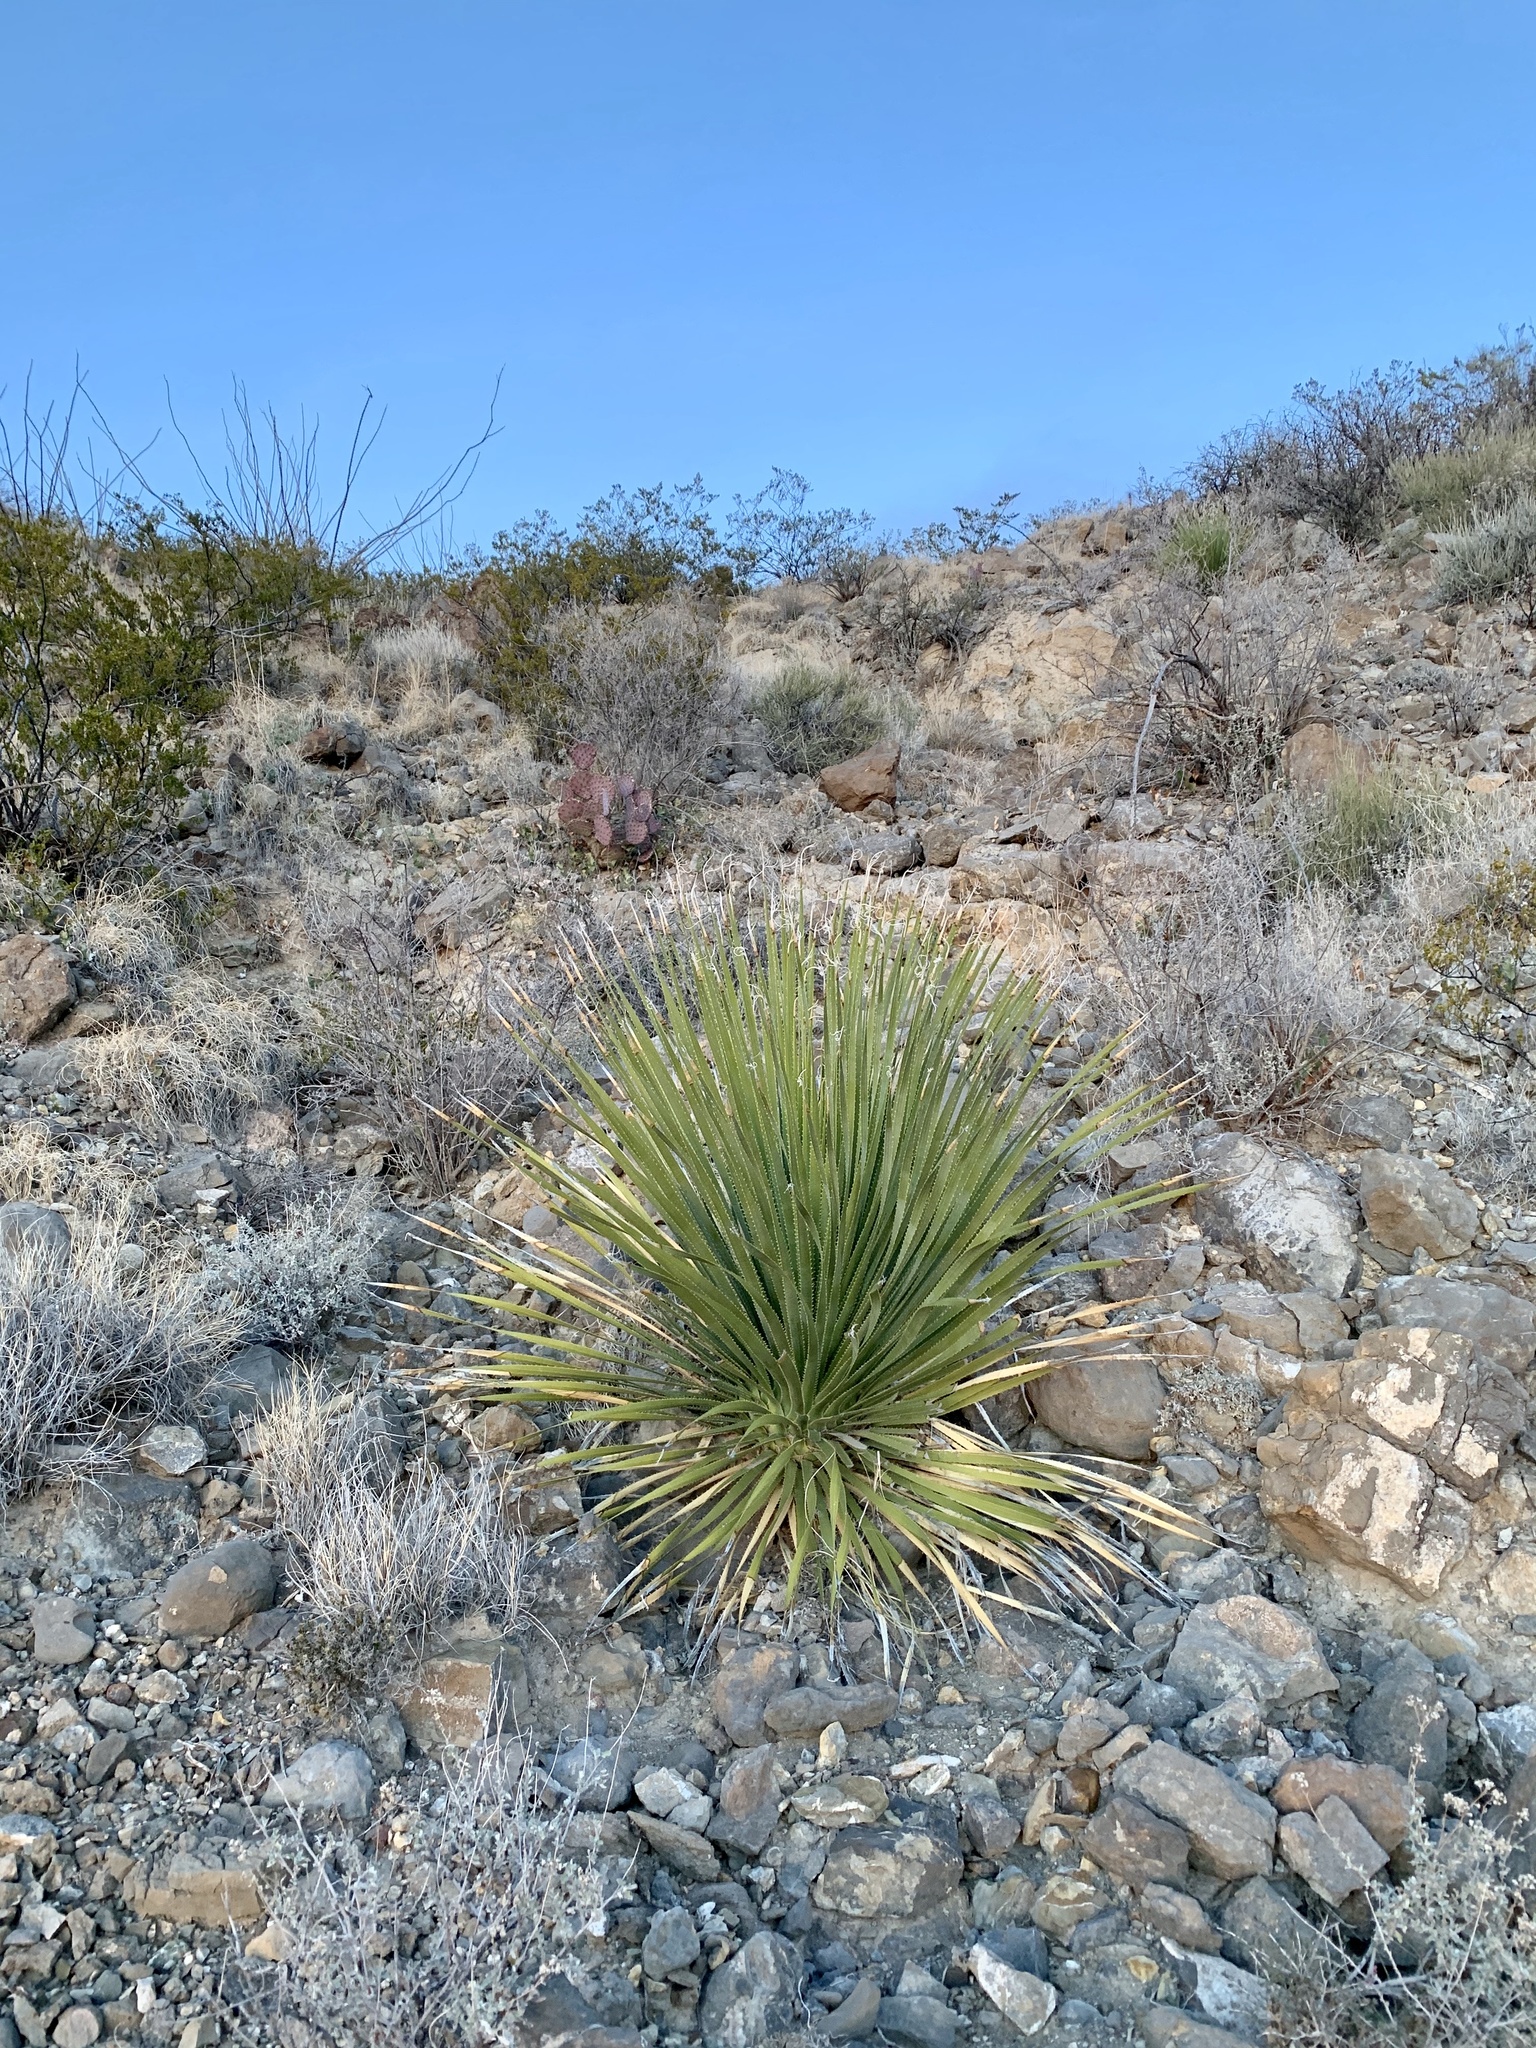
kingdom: Plantae
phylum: Tracheophyta
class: Liliopsida
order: Asparagales
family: Asparagaceae
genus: Dasylirion
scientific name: Dasylirion wheeleri
